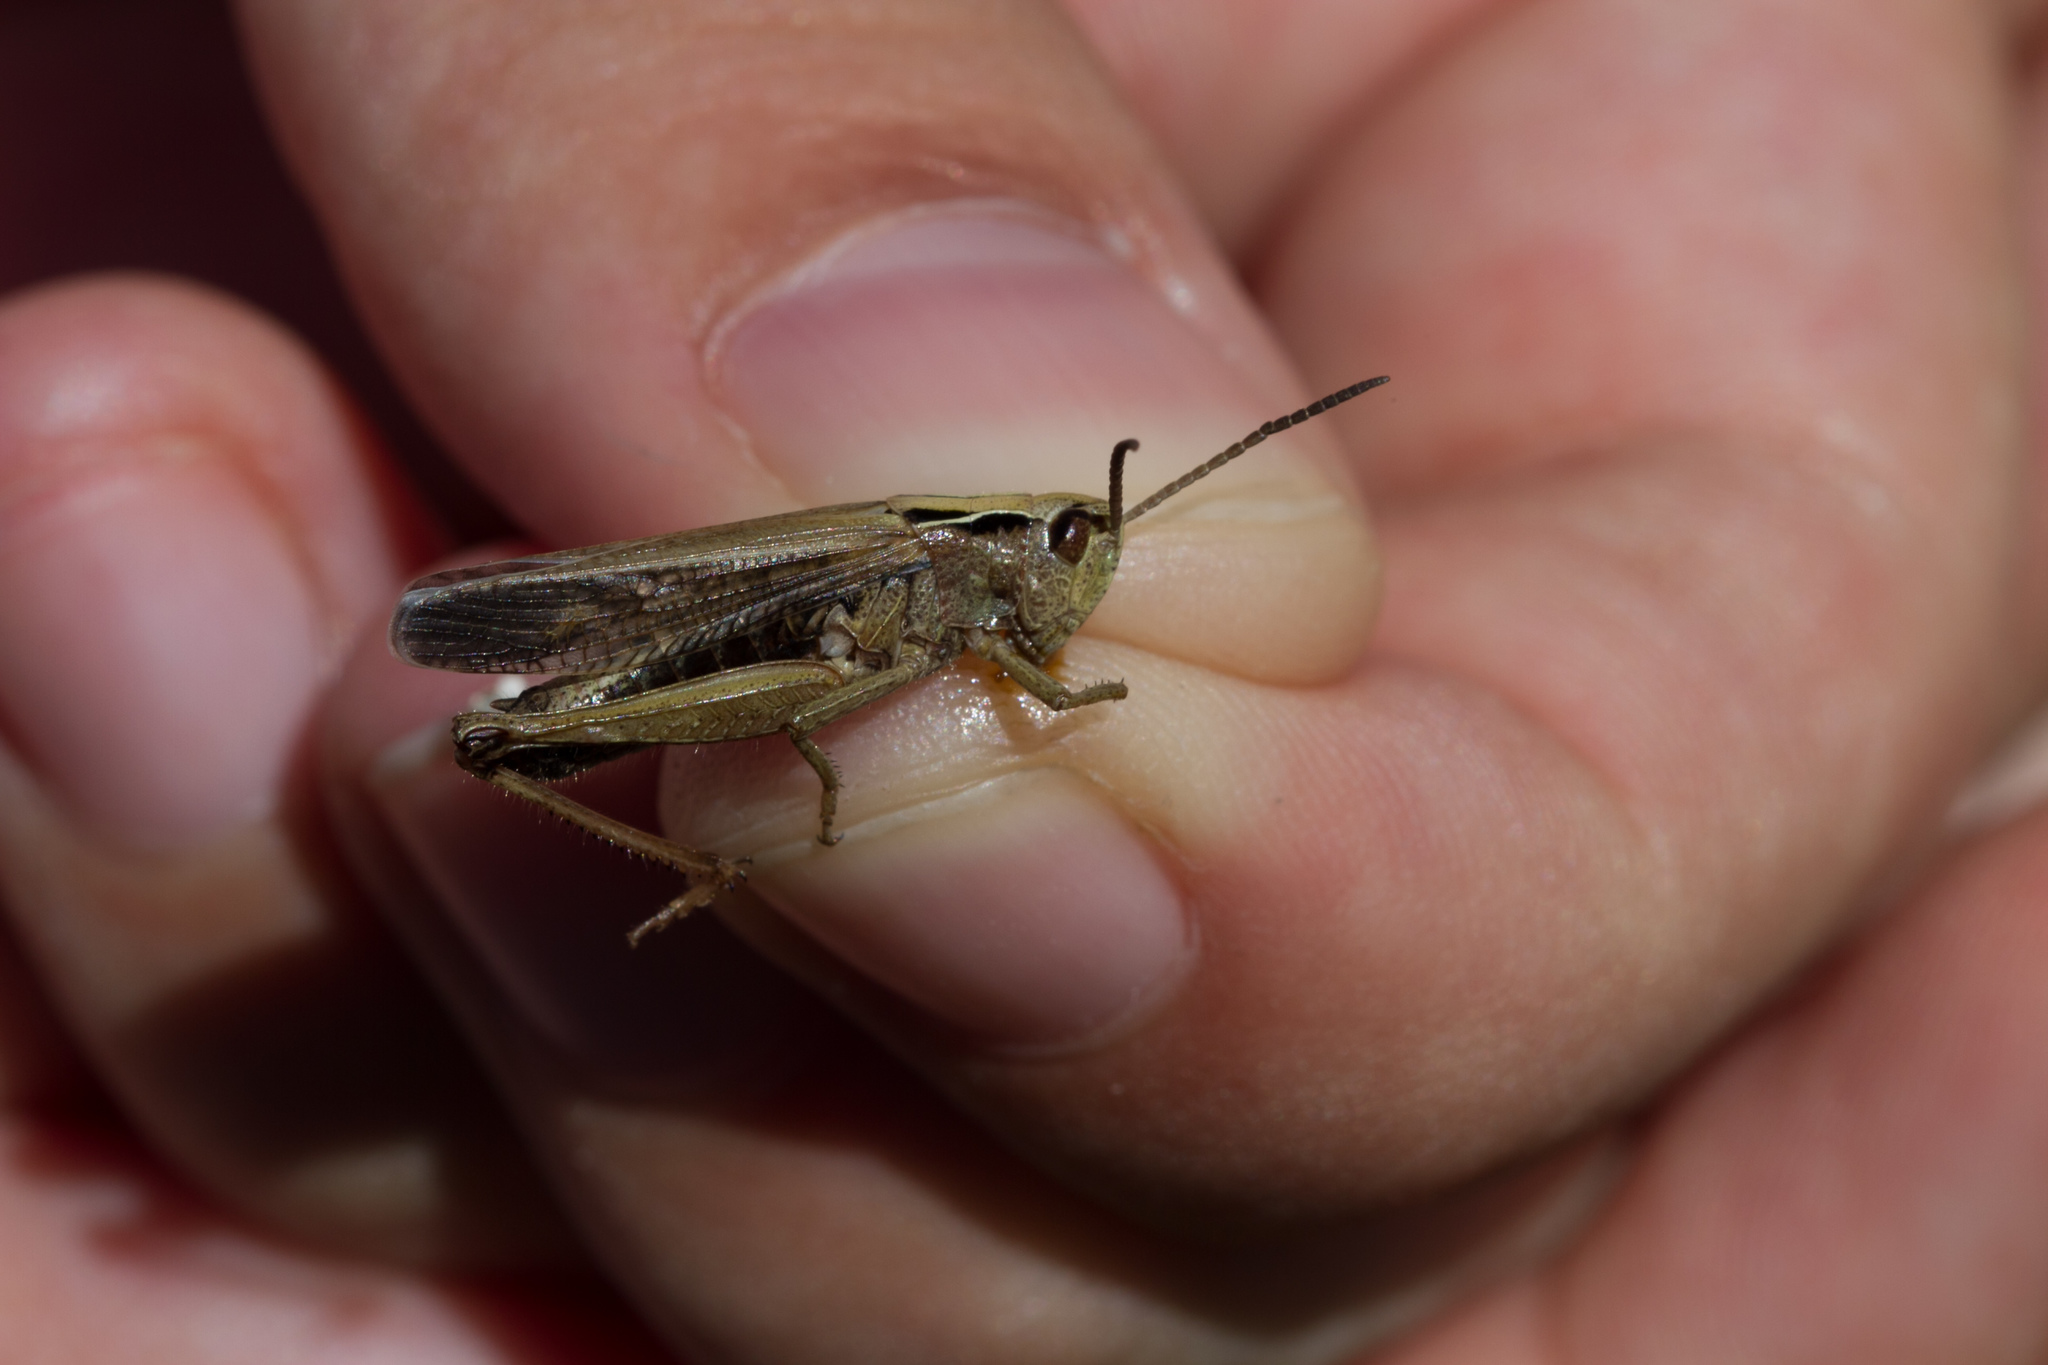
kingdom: Animalia
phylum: Arthropoda
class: Insecta
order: Orthoptera
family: Acrididae
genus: Omocestus
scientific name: Omocestus viridulus
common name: Common green grasshopper
